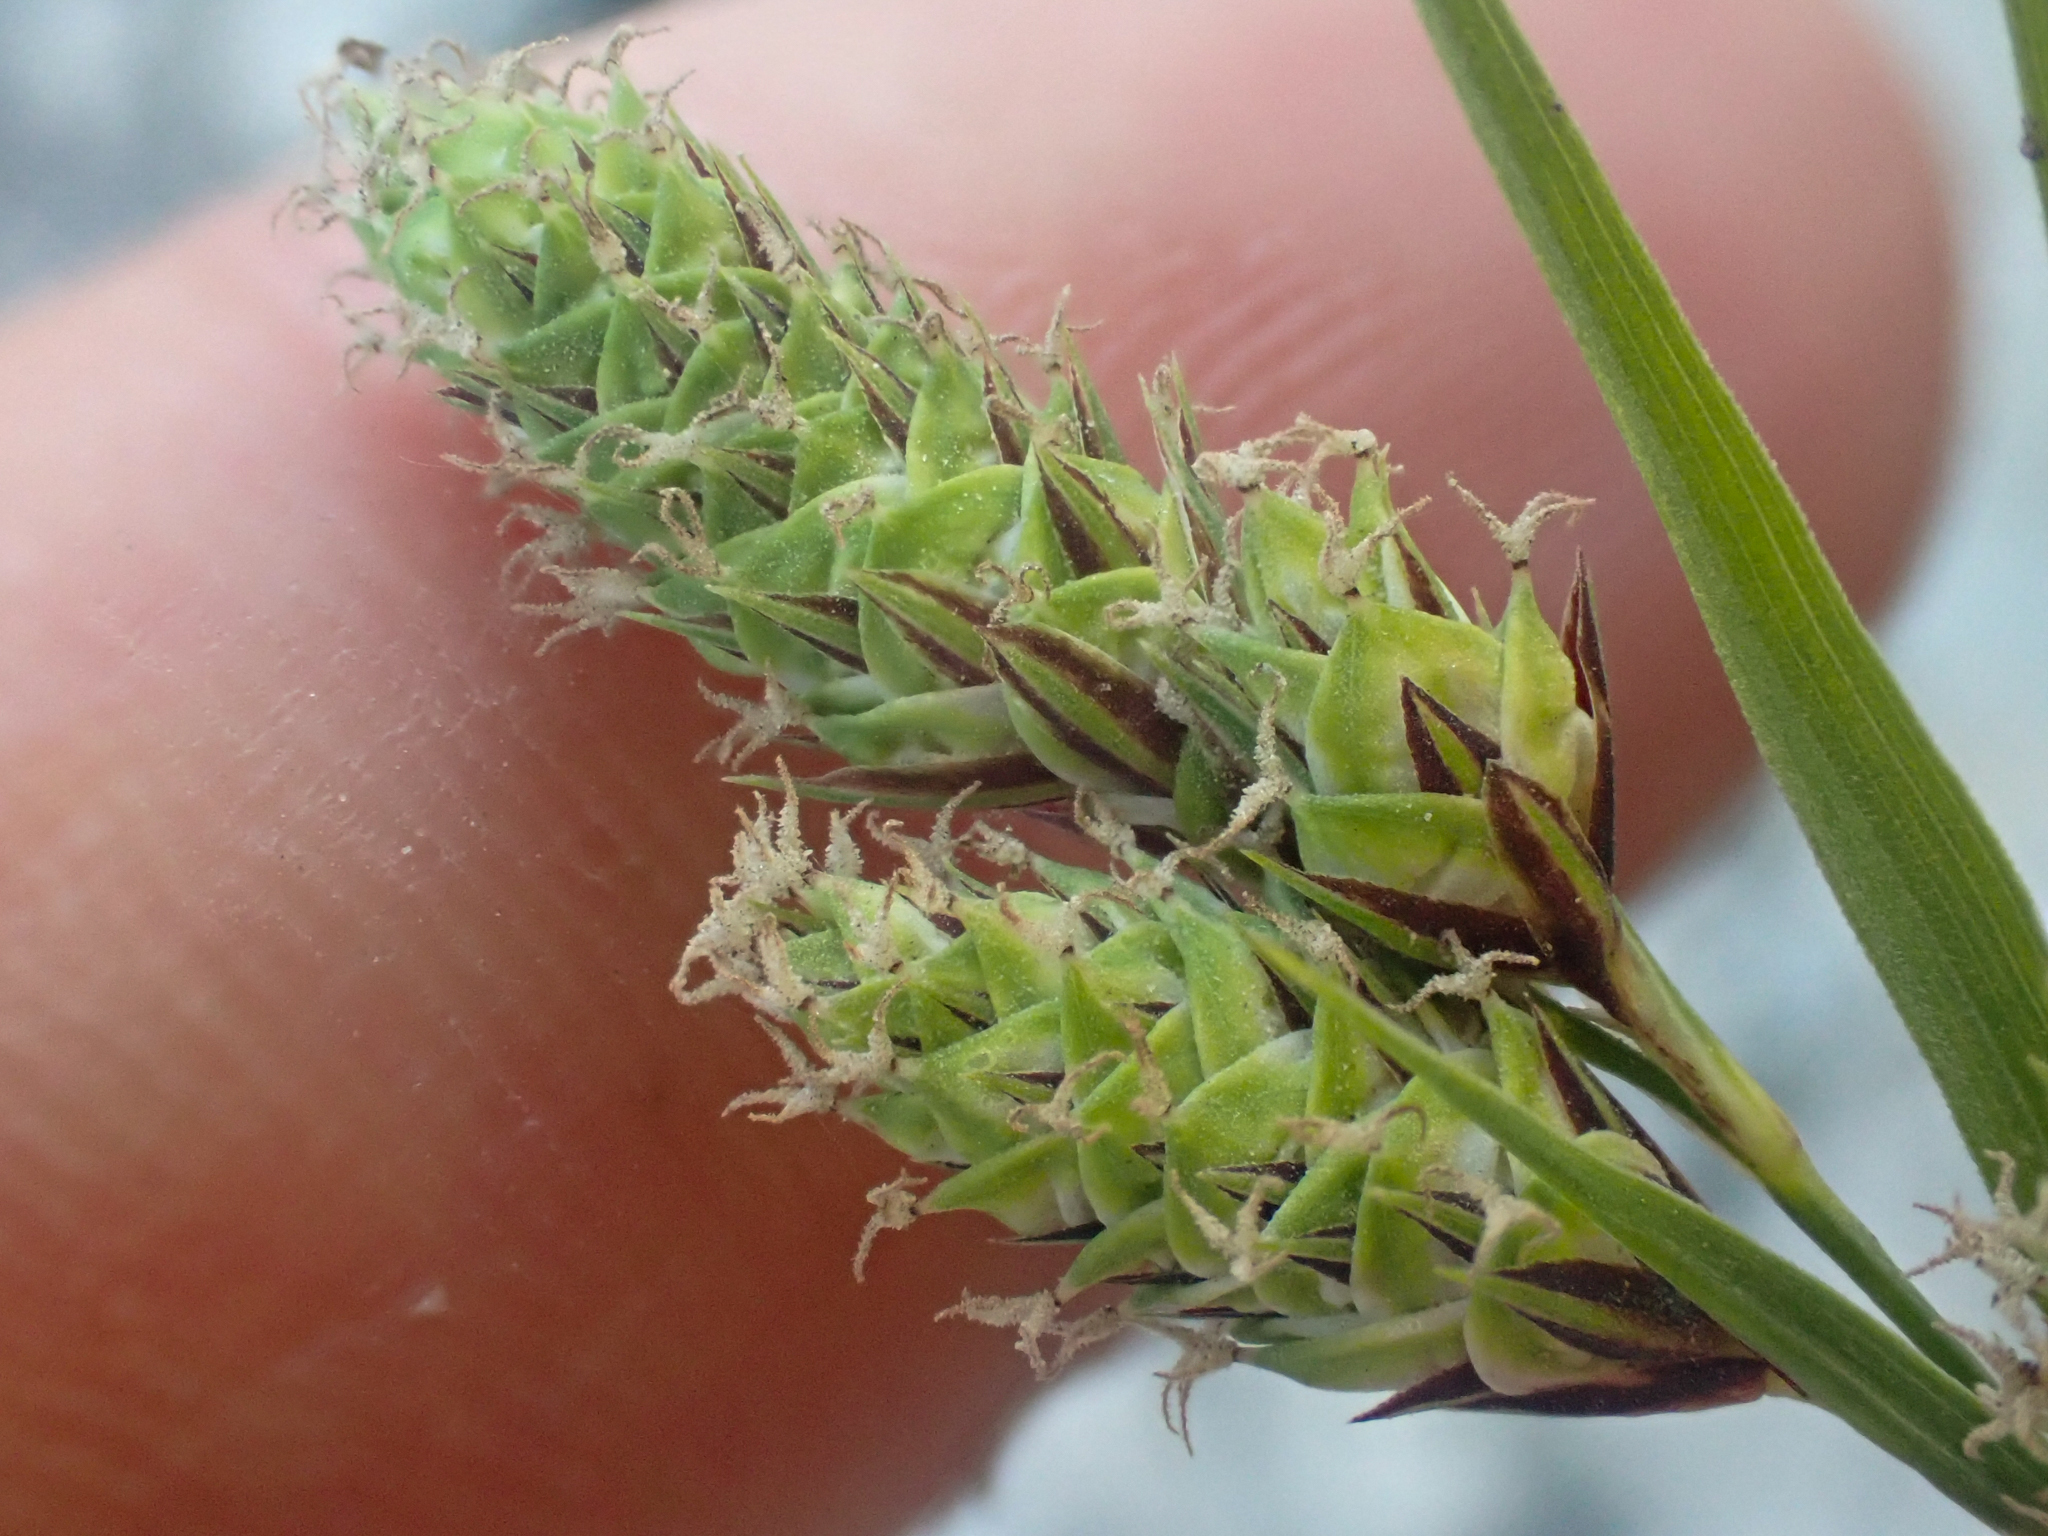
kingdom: Plantae
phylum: Tracheophyta
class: Liliopsida
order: Poales
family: Cyperaceae
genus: Carex
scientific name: Carex mertensii
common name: Mertens' sedge
